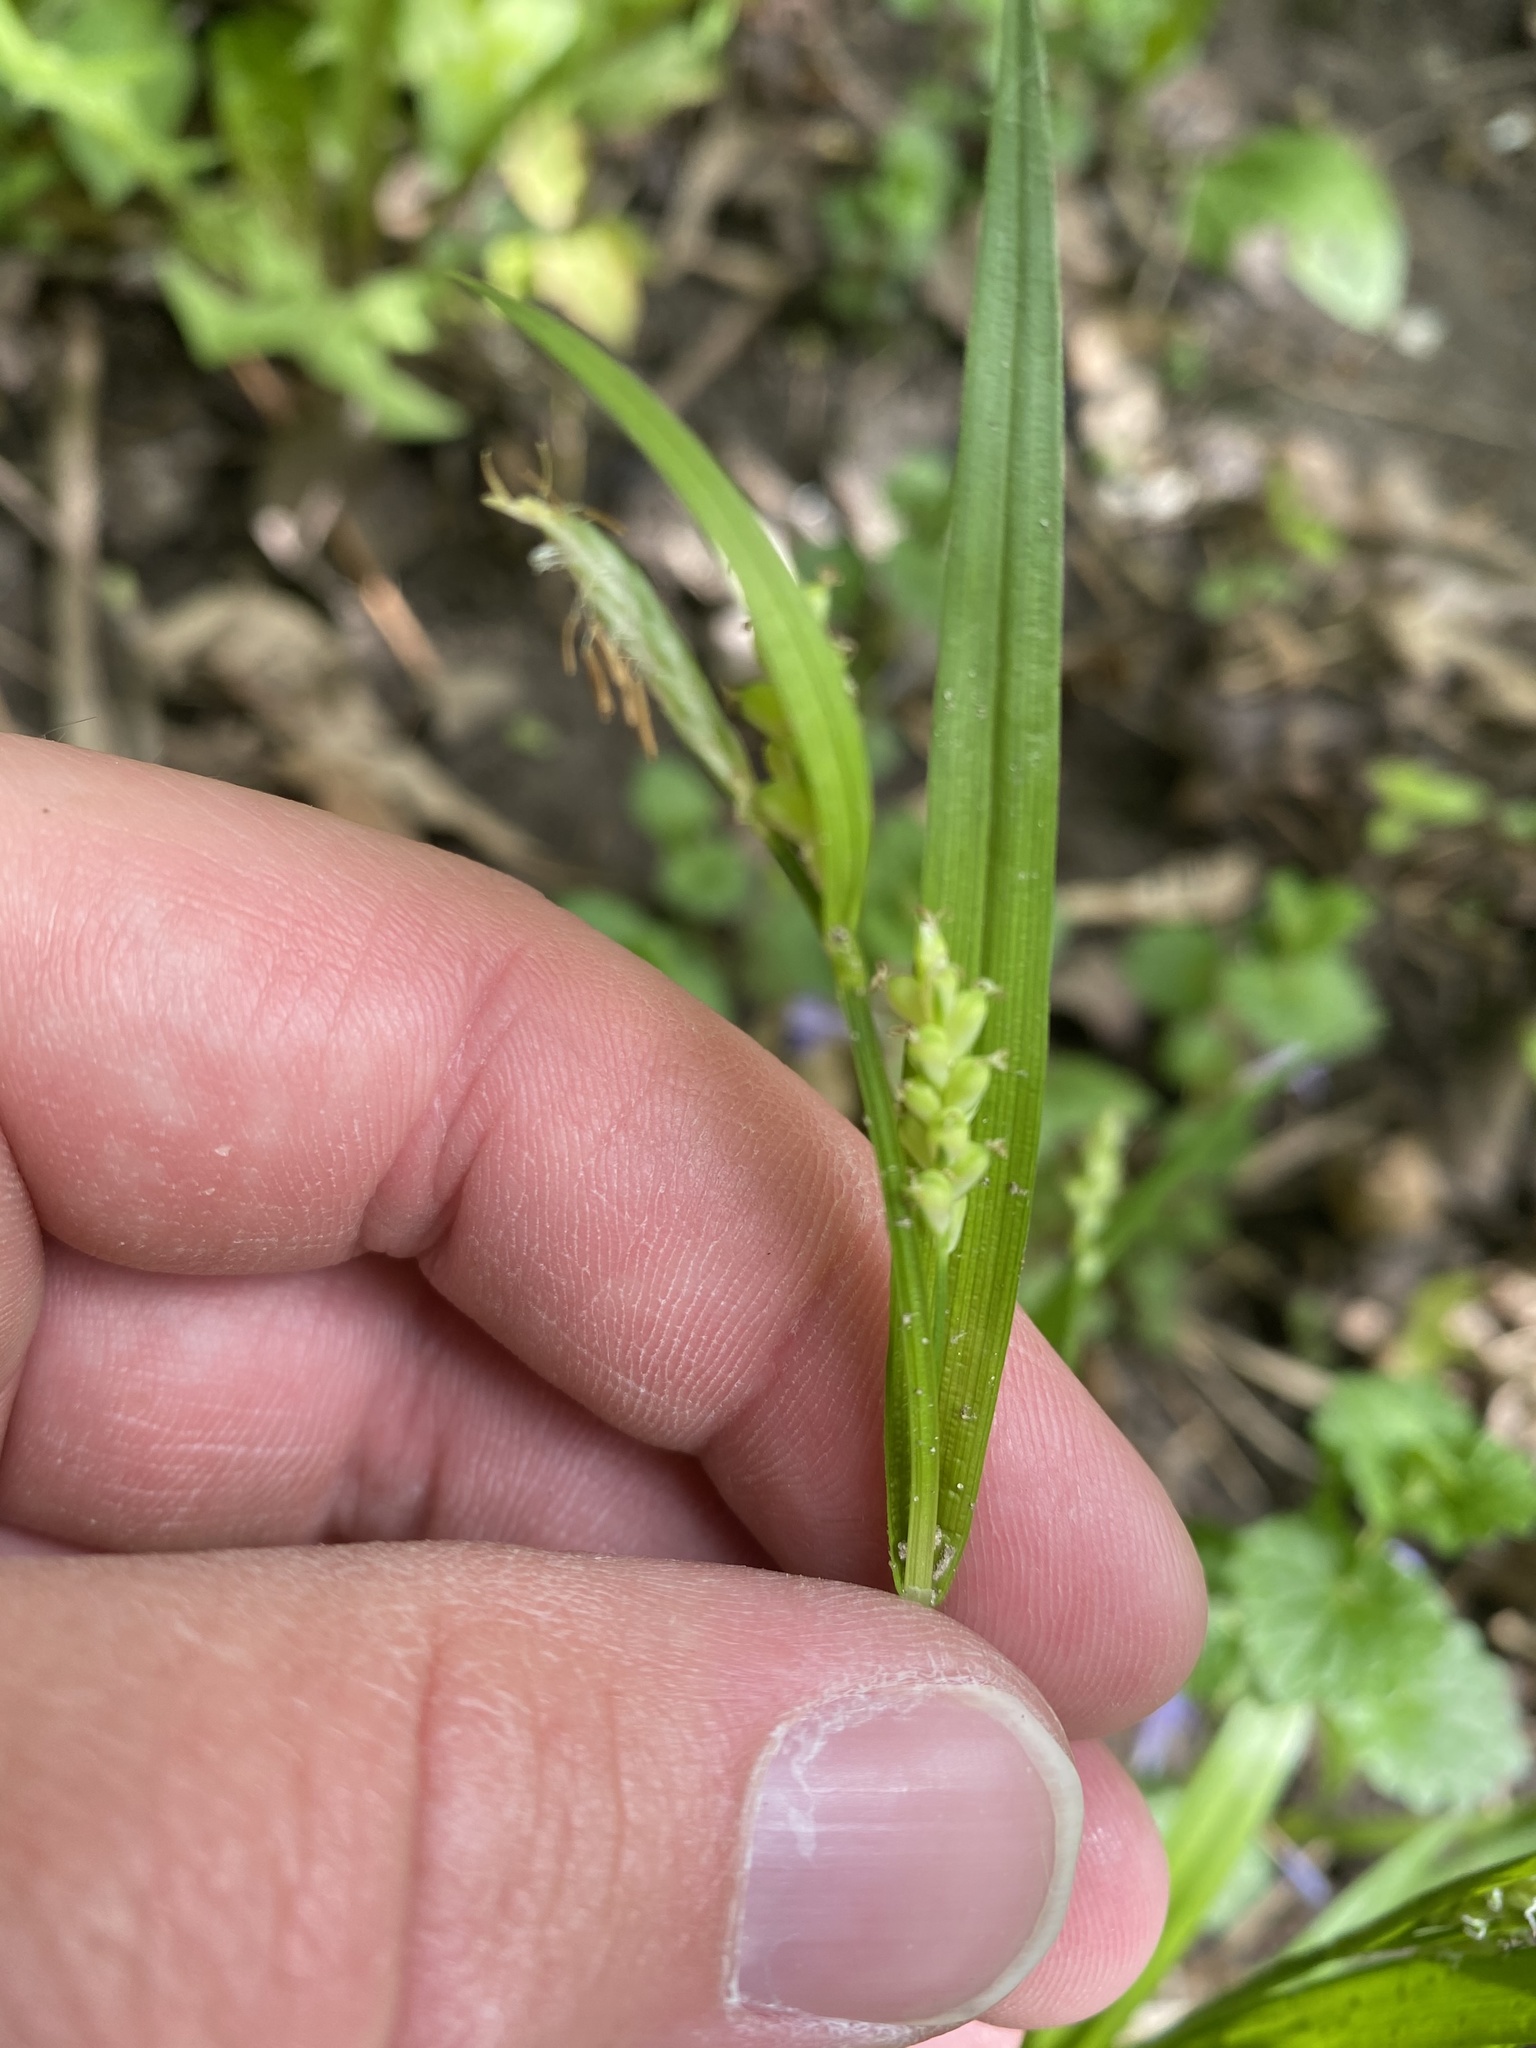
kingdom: Plantae
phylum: Tracheophyta
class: Liliopsida
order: Poales
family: Cyperaceae
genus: Carex
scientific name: Carex blanda
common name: Bland sedge
